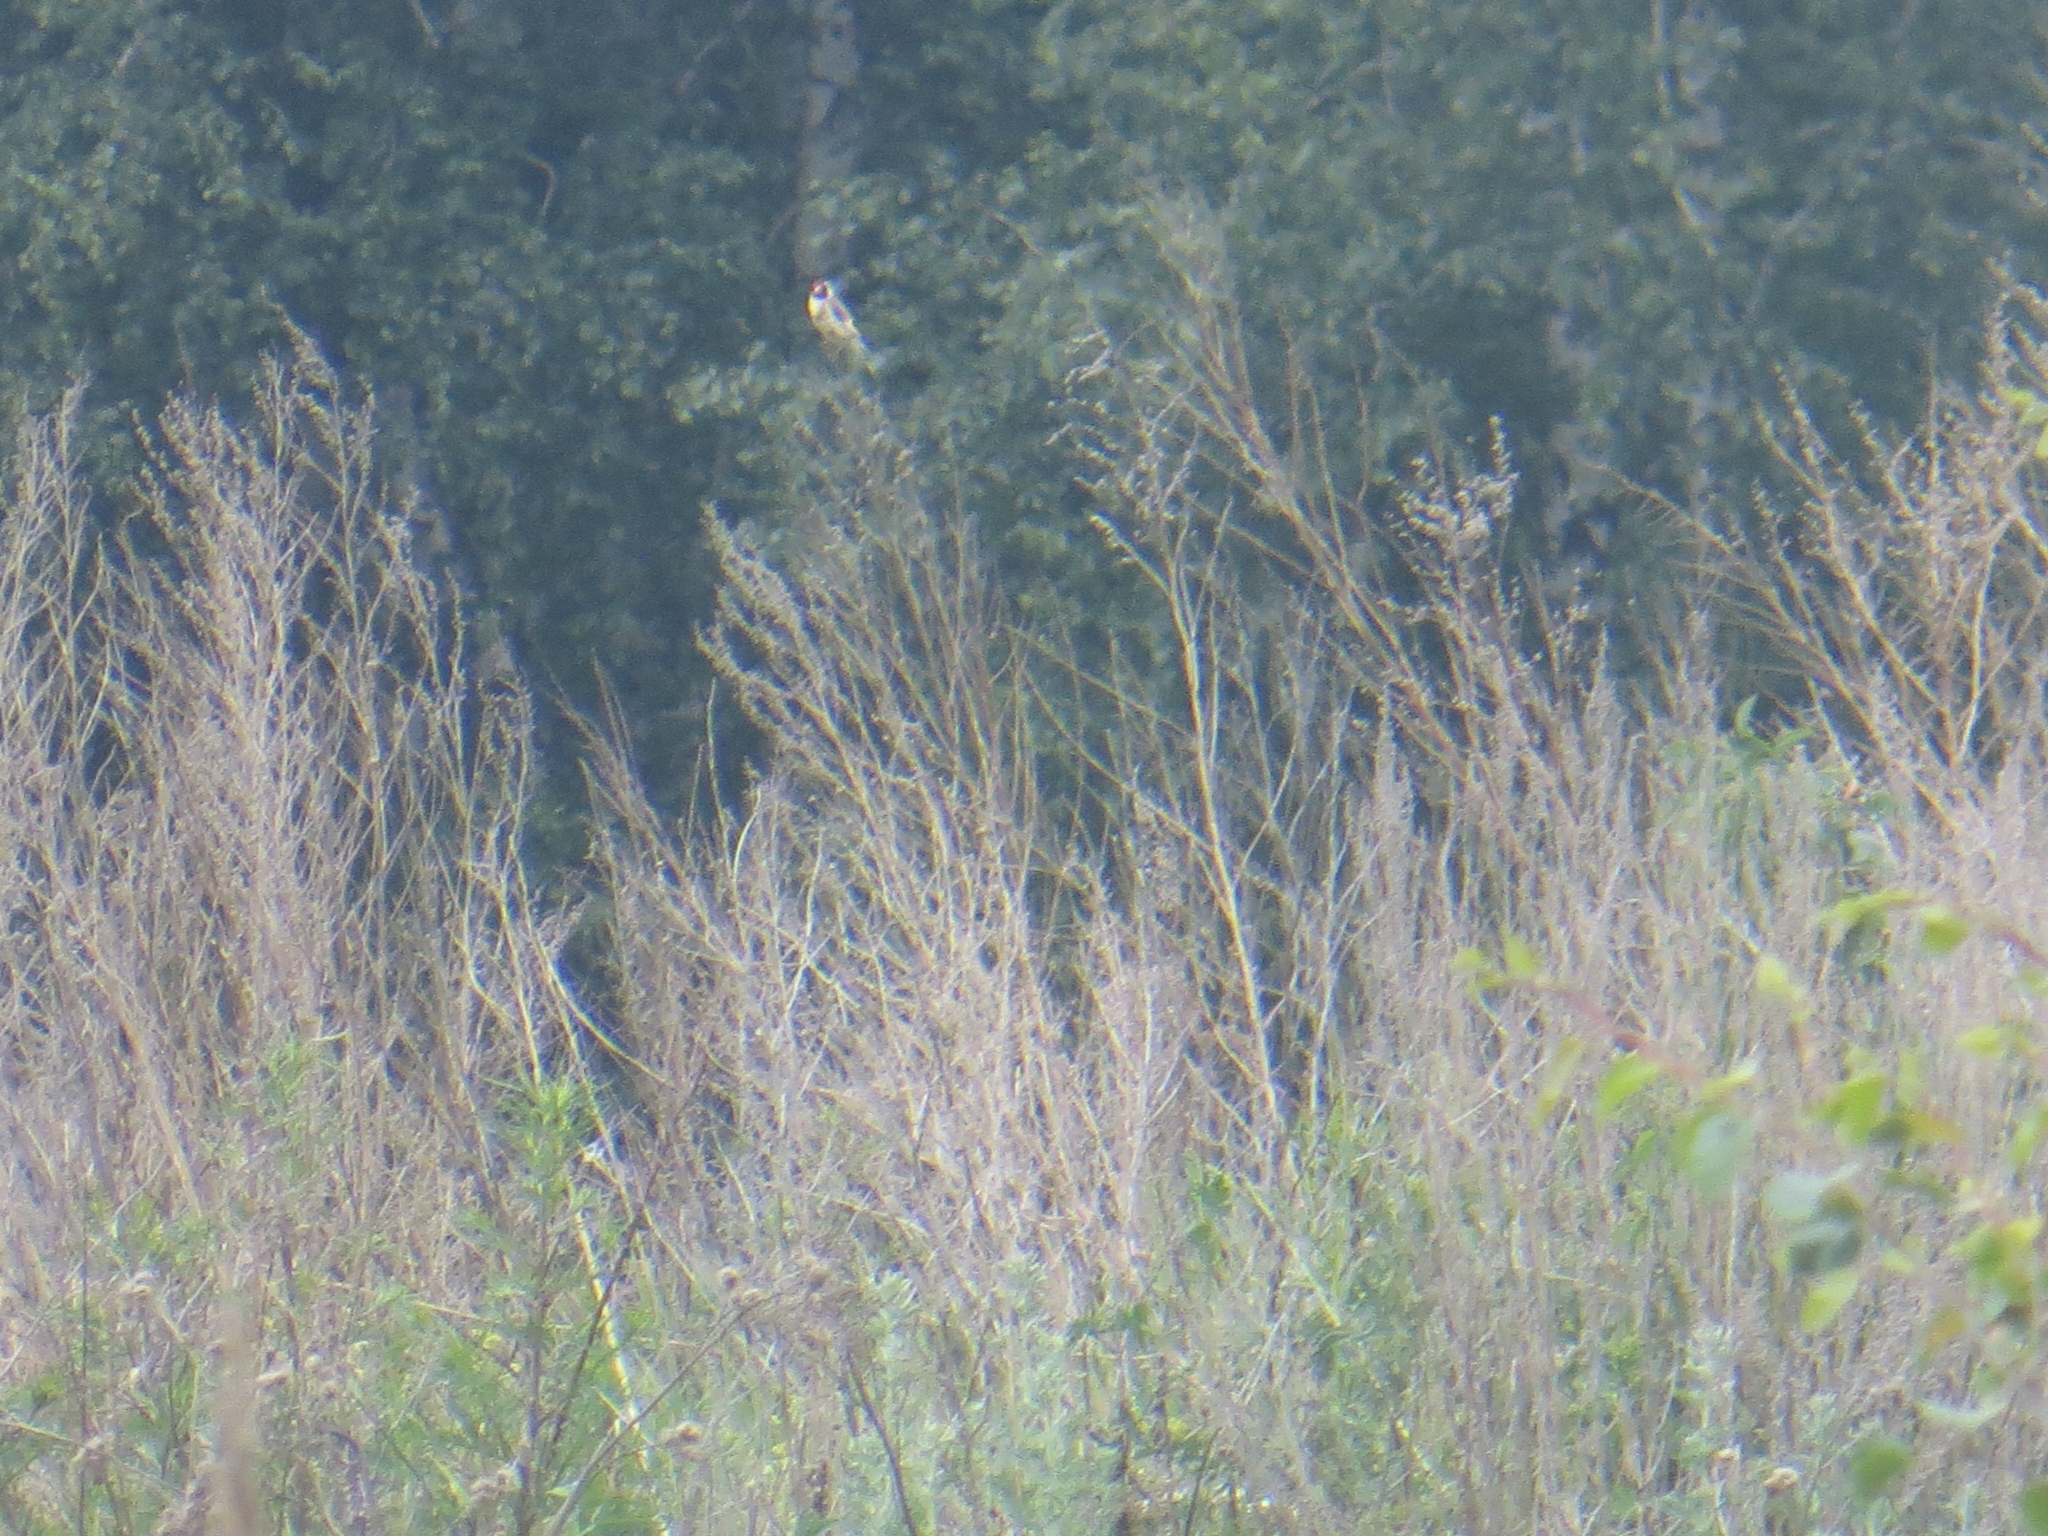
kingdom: Animalia
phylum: Chordata
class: Aves
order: Passeriformes
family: Fringillidae
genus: Carduelis
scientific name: Carduelis carduelis
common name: European goldfinch
